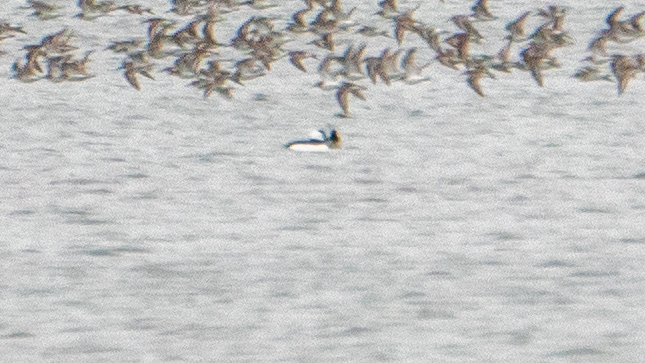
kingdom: Animalia
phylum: Chordata
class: Aves
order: Anseriformes
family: Anatidae
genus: Bucephala
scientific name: Bucephala albeola
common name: Bufflehead
